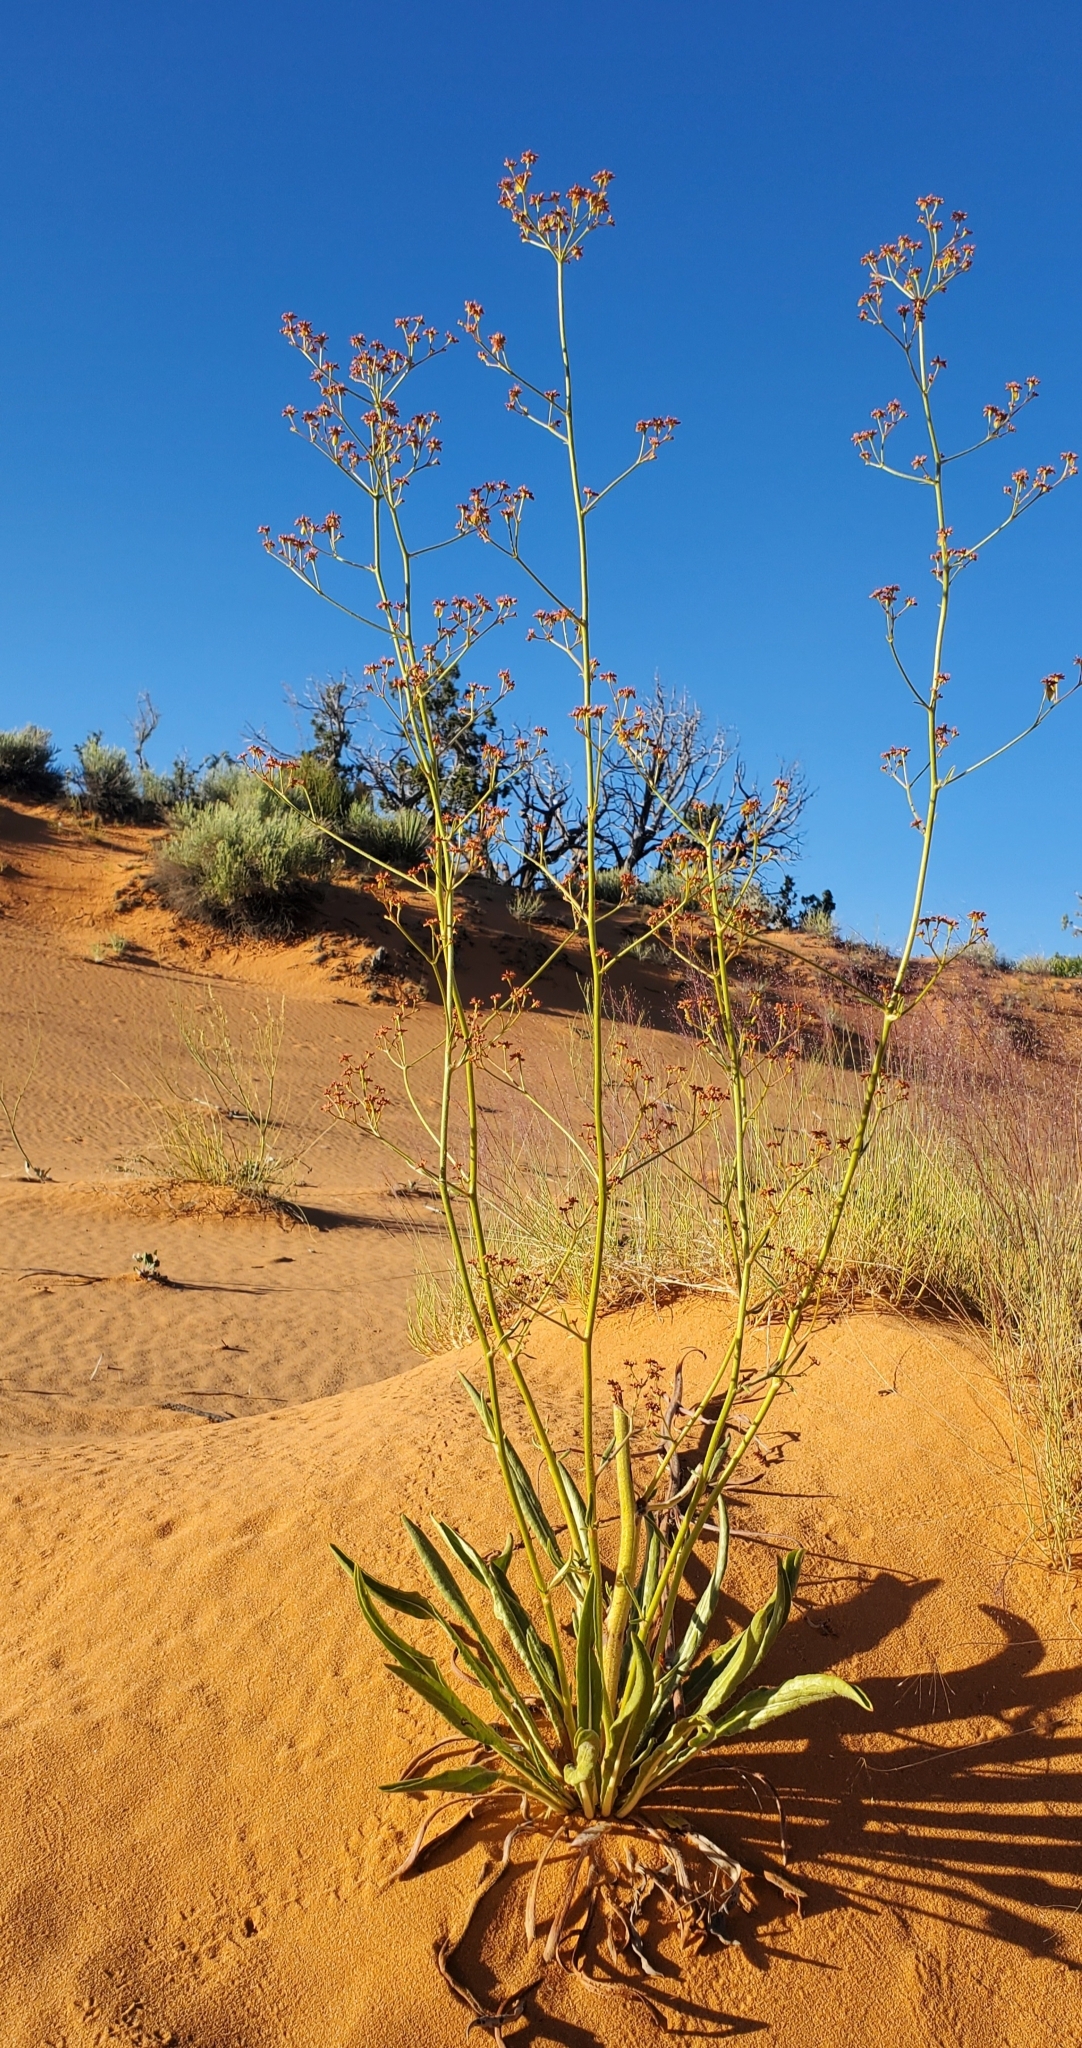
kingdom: Plantae
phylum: Tracheophyta
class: Magnoliopsida
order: Caryophyllales
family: Polygonaceae
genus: Eriogonum
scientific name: Eriogonum alatum
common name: Winged eriogonum
